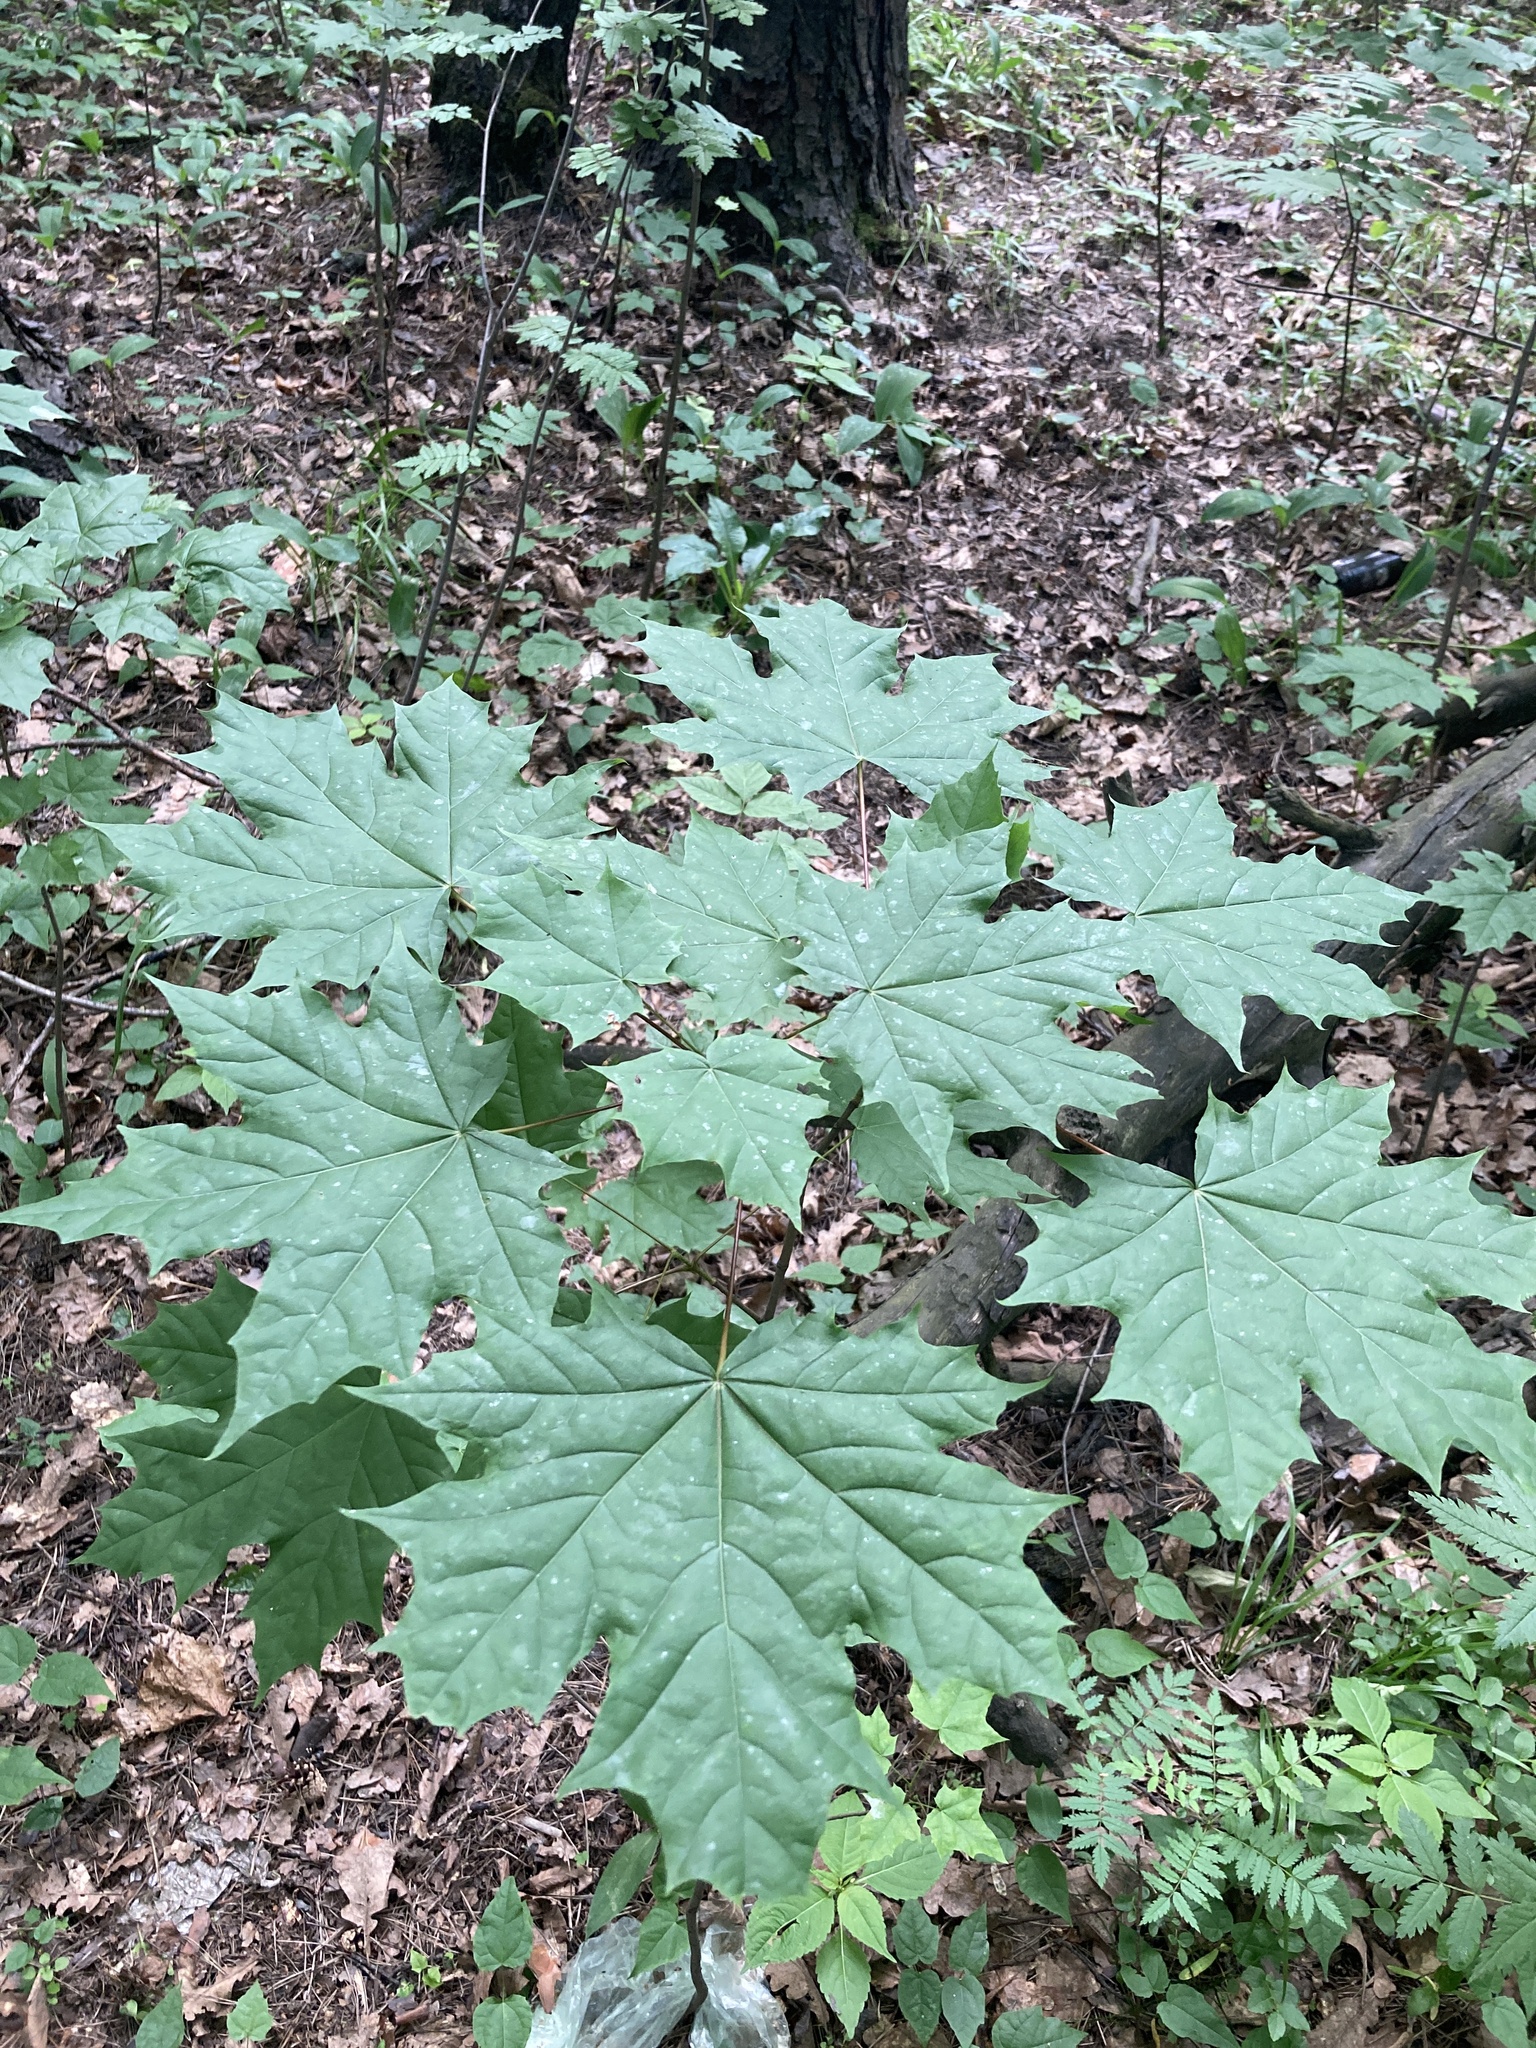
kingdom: Plantae
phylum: Tracheophyta
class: Magnoliopsida
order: Sapindales
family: Sapindaceae
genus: Acer
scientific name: Acer platanoides
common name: Norway maple
